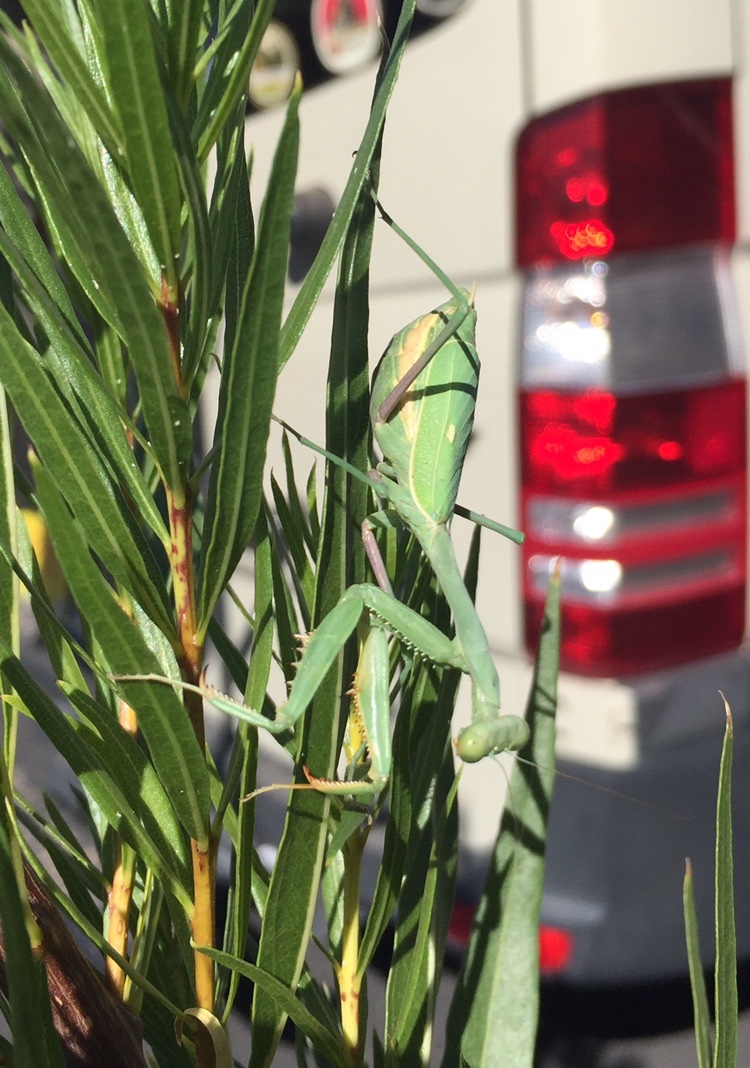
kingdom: Animalia
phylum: Arthropoda
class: Insecta
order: Mantodea
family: Mantidae
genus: Stagmomantis
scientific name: Stagmomantis limbata
